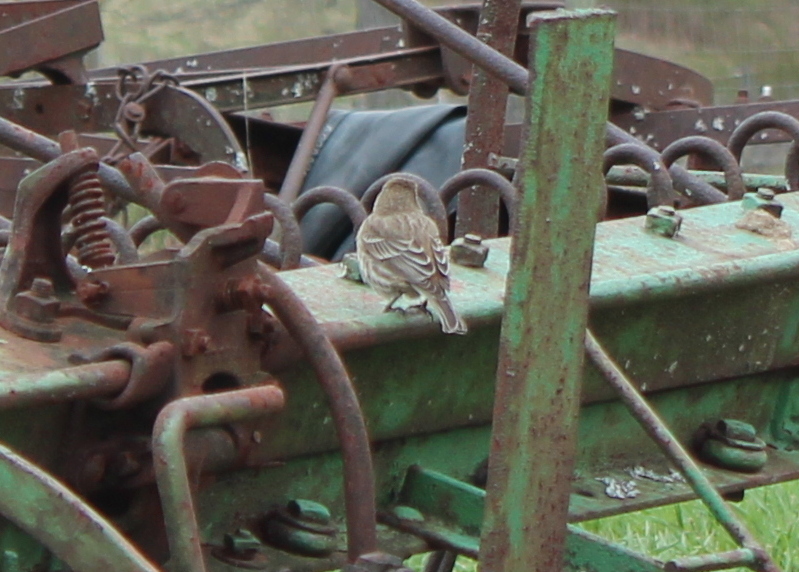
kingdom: Animalia
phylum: Chordata
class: Aves
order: Passeriformes
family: Fringillidae
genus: Haemorhous
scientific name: Haemorhous mexicanus
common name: House finch
